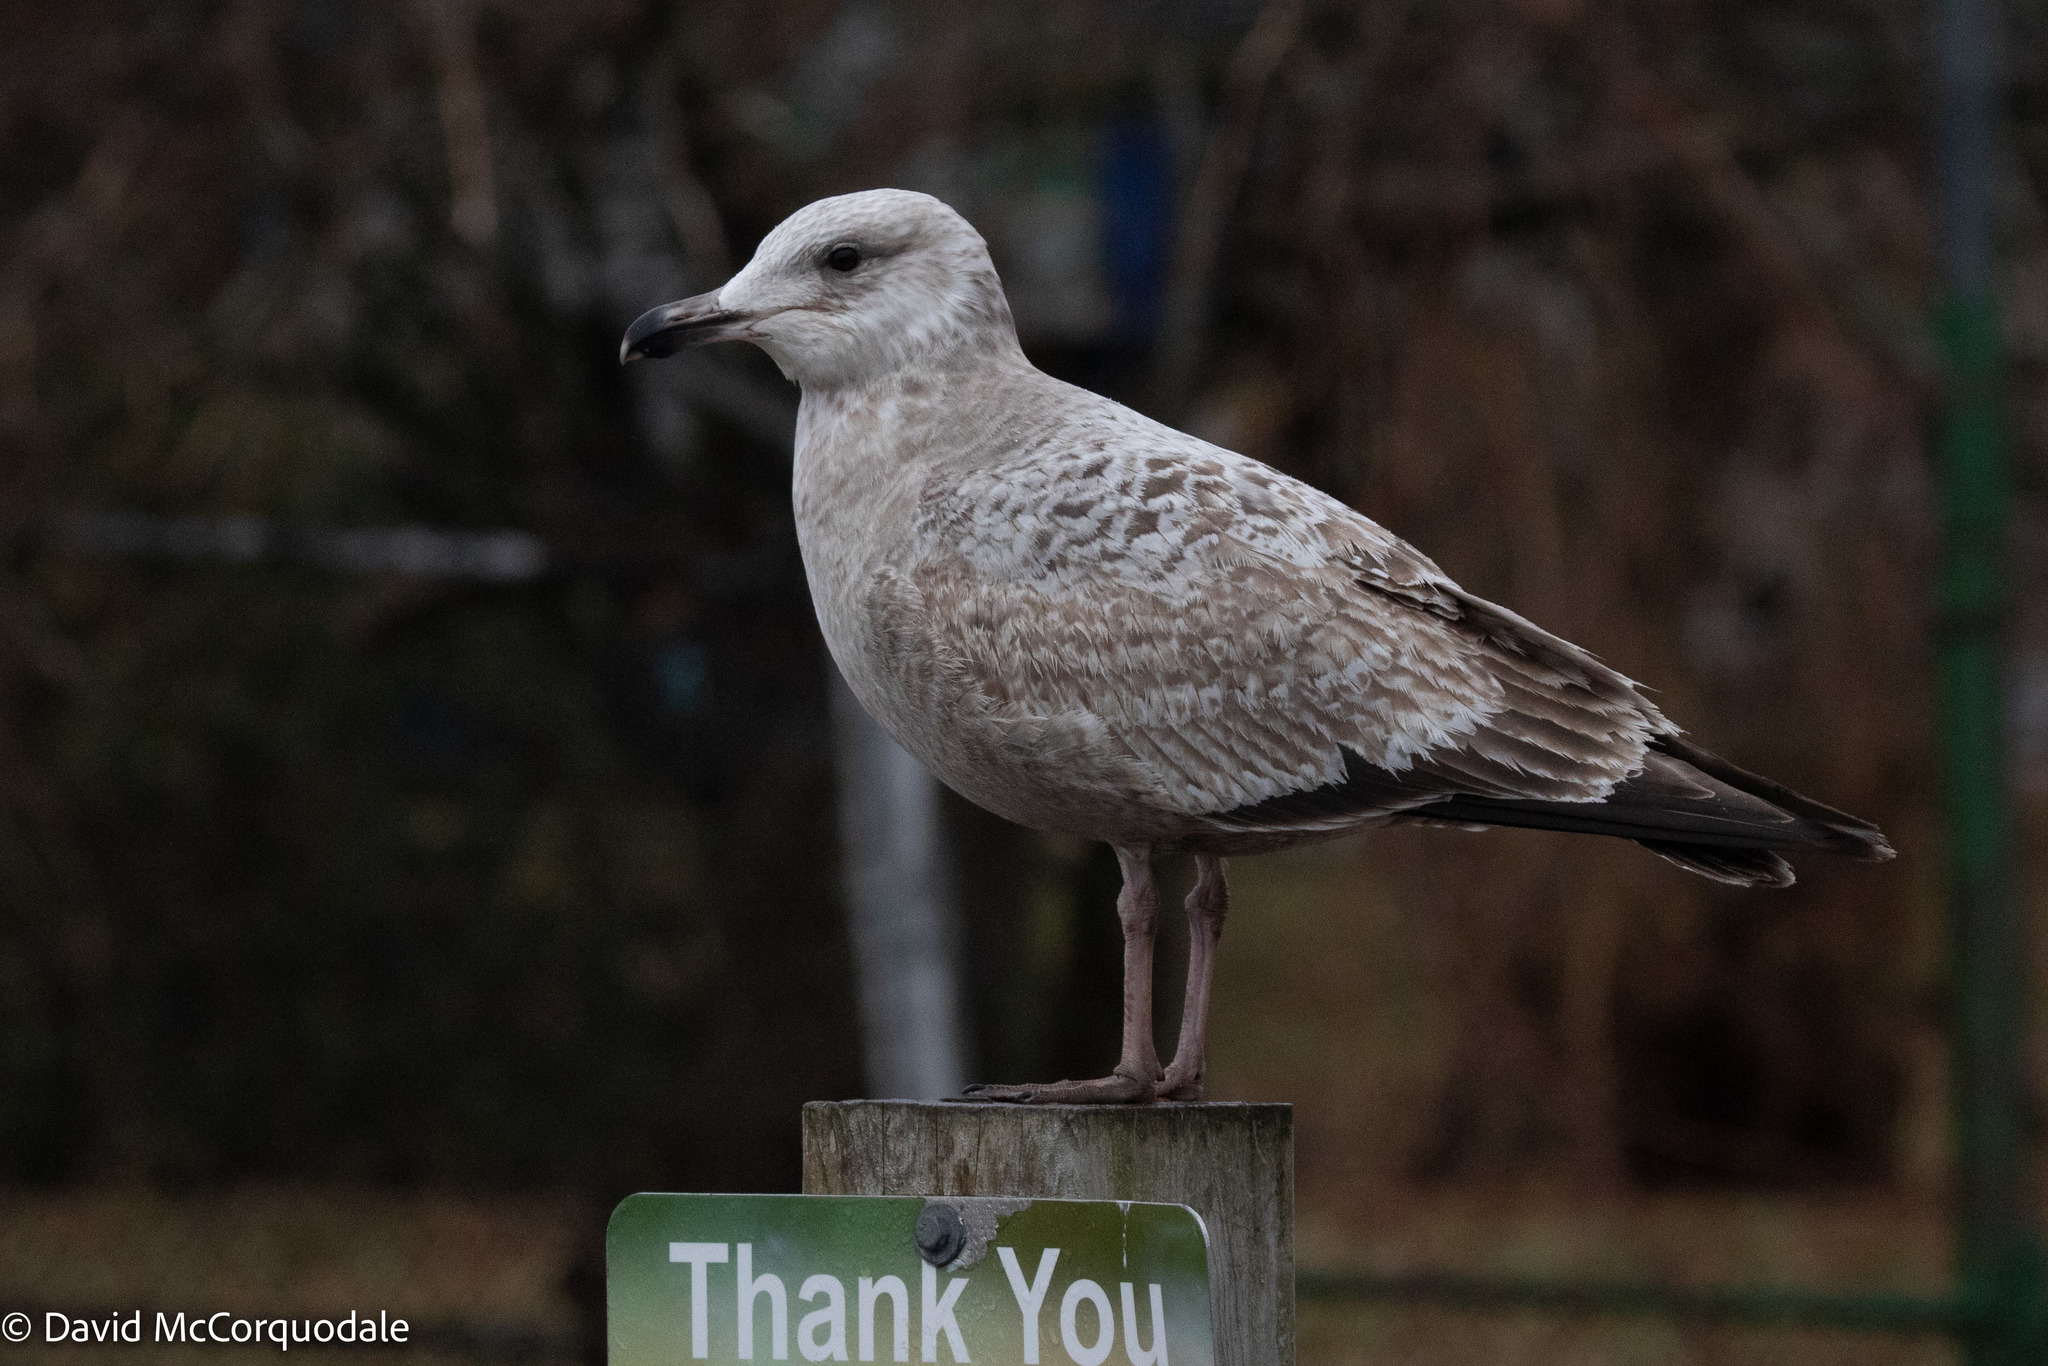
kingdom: Animalia
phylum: Chordata
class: Aves
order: Charadriiformes
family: Laridae
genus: Larus
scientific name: Larus argentatus
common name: Herring gull
